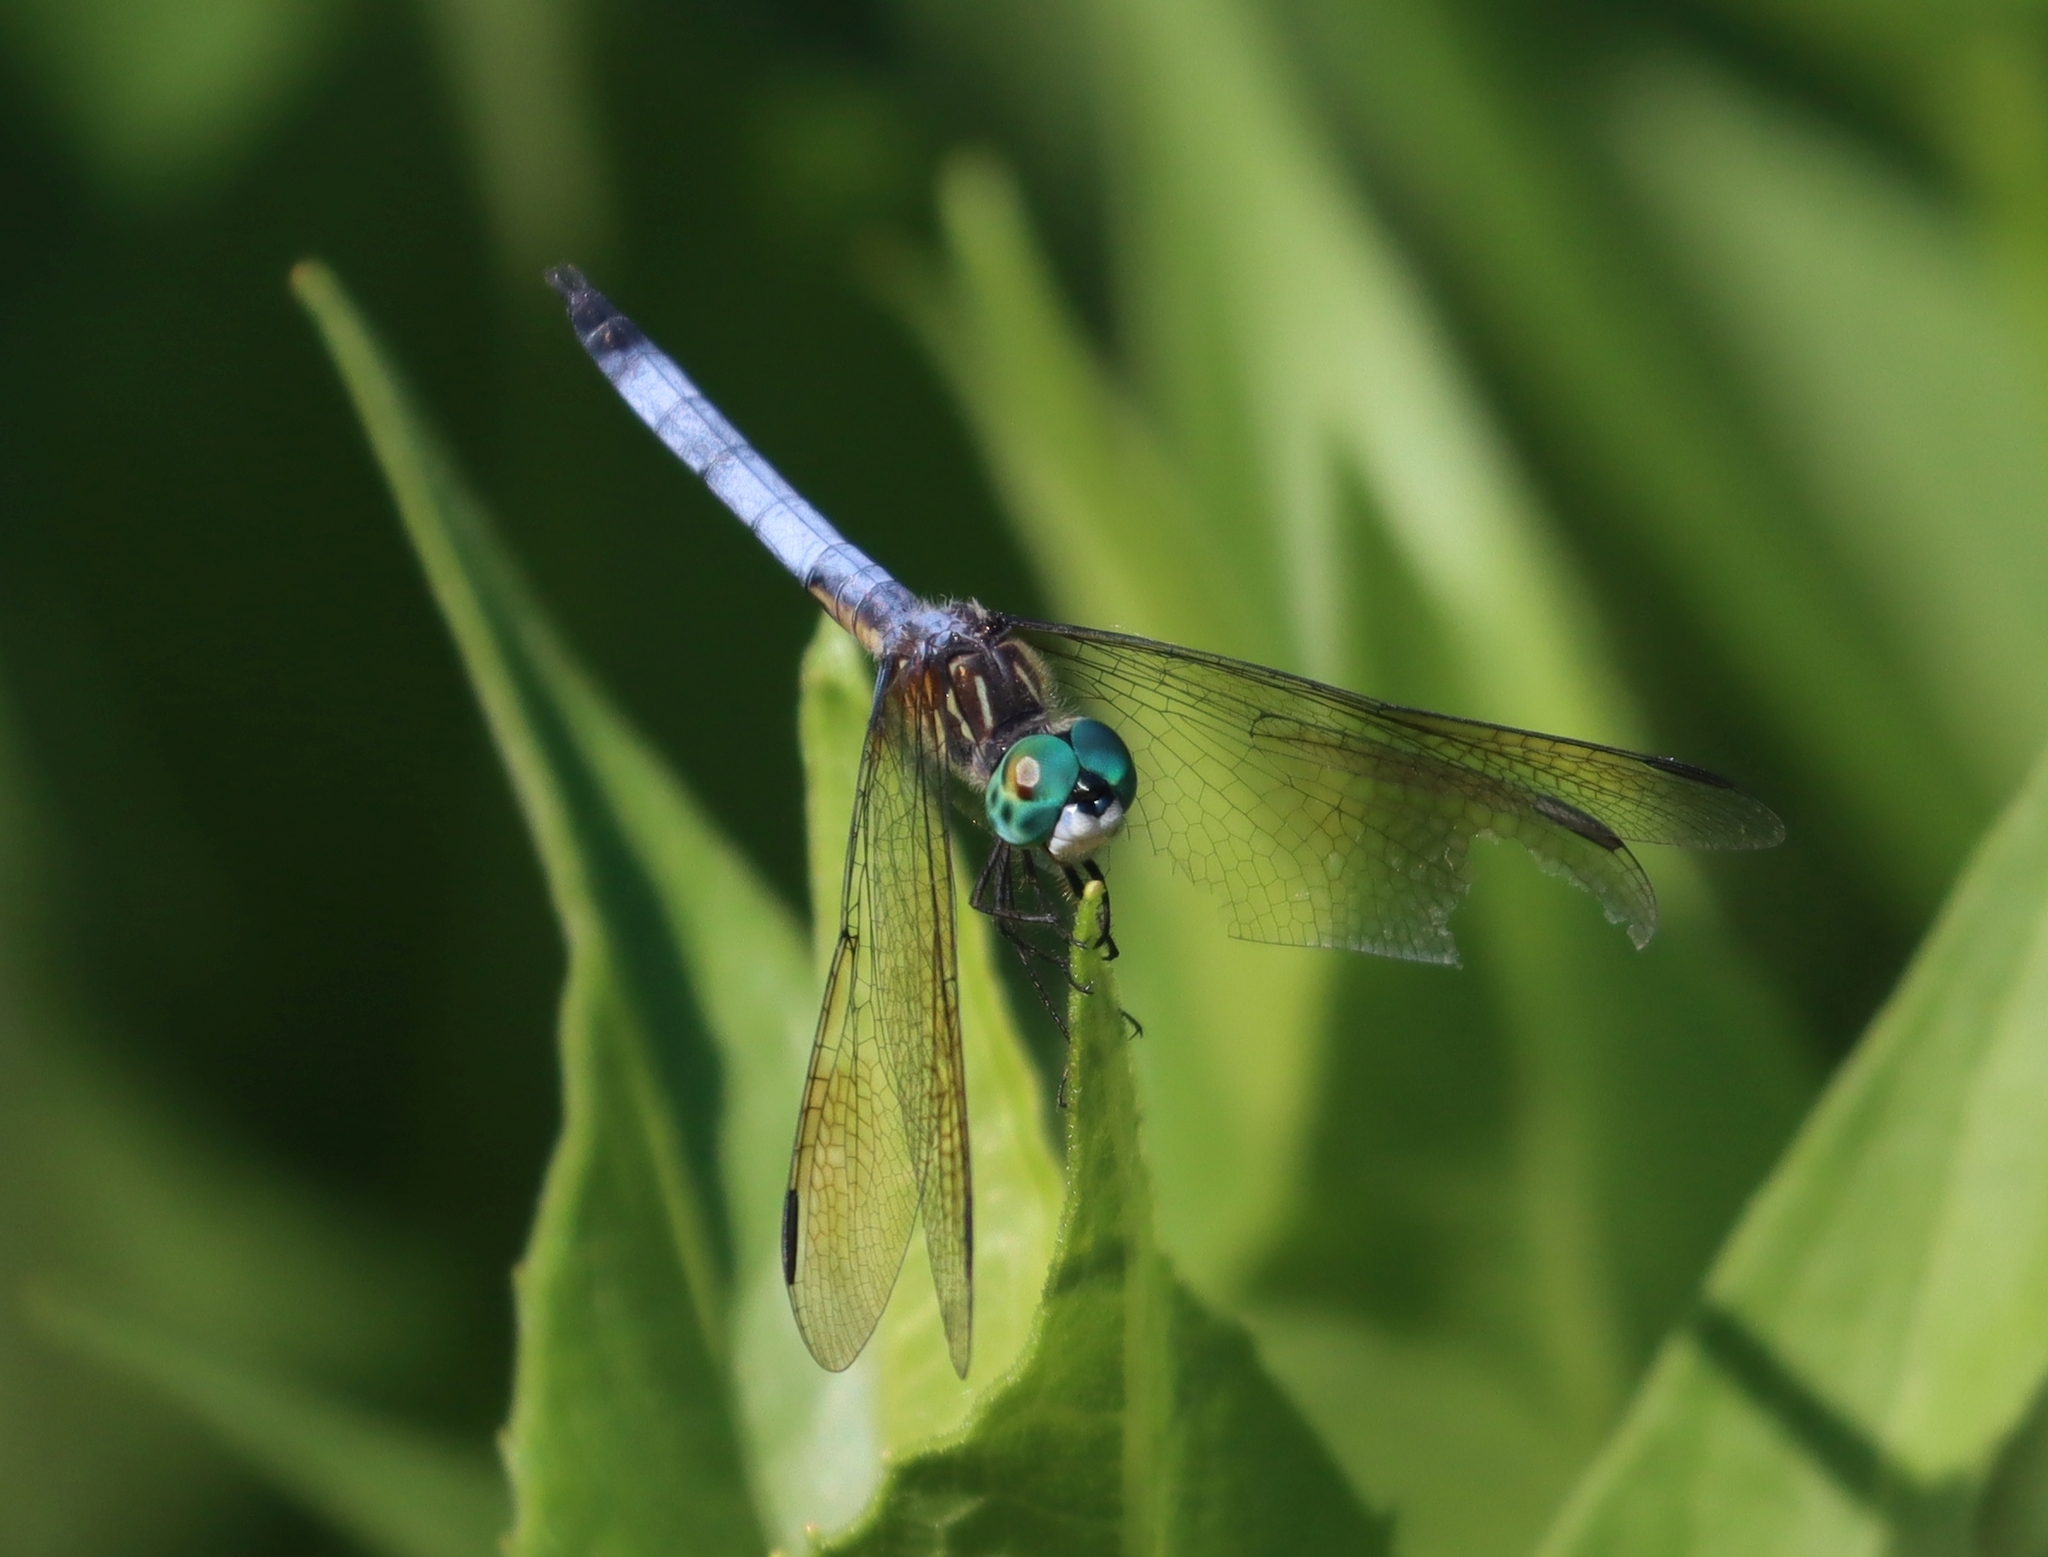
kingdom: Animalia
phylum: Arthropoda
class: Insecta
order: Odonata
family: Libellulidae
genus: Pachydiplax
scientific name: Pachydiplax longipennis
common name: Blue dasher
